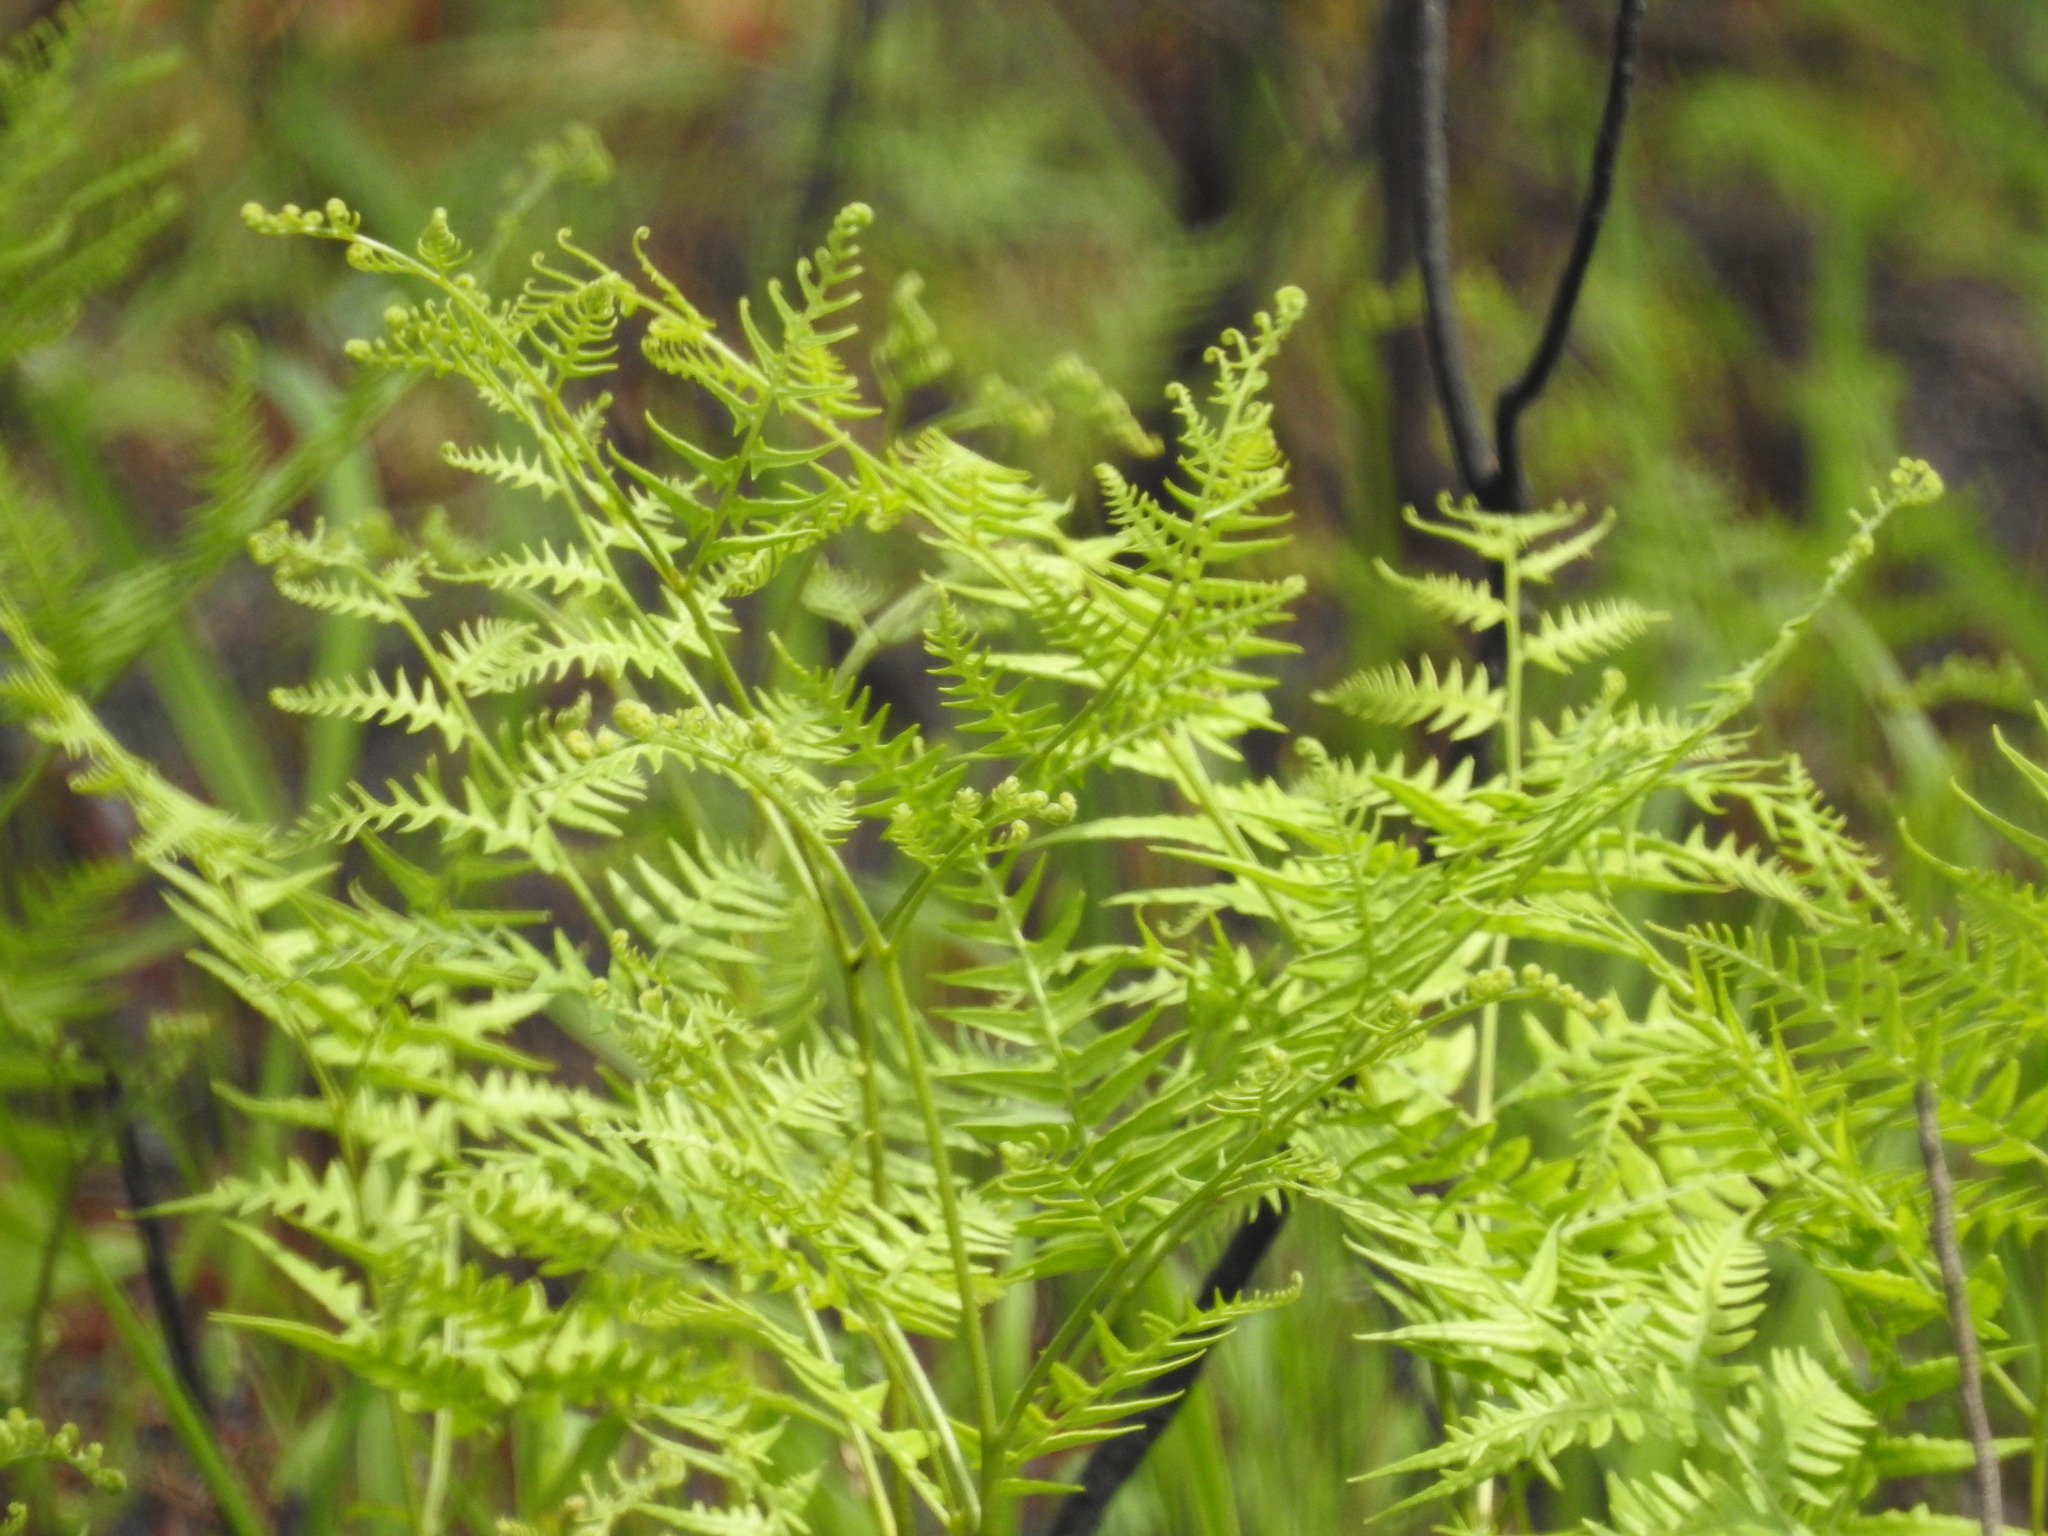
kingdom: Plantae
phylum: Tracheophyta
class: Polypodiopsida
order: Polypodiales
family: Dennstaedtiaceae
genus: Pteridium
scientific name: Pteridium aquilinum
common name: Bracken
